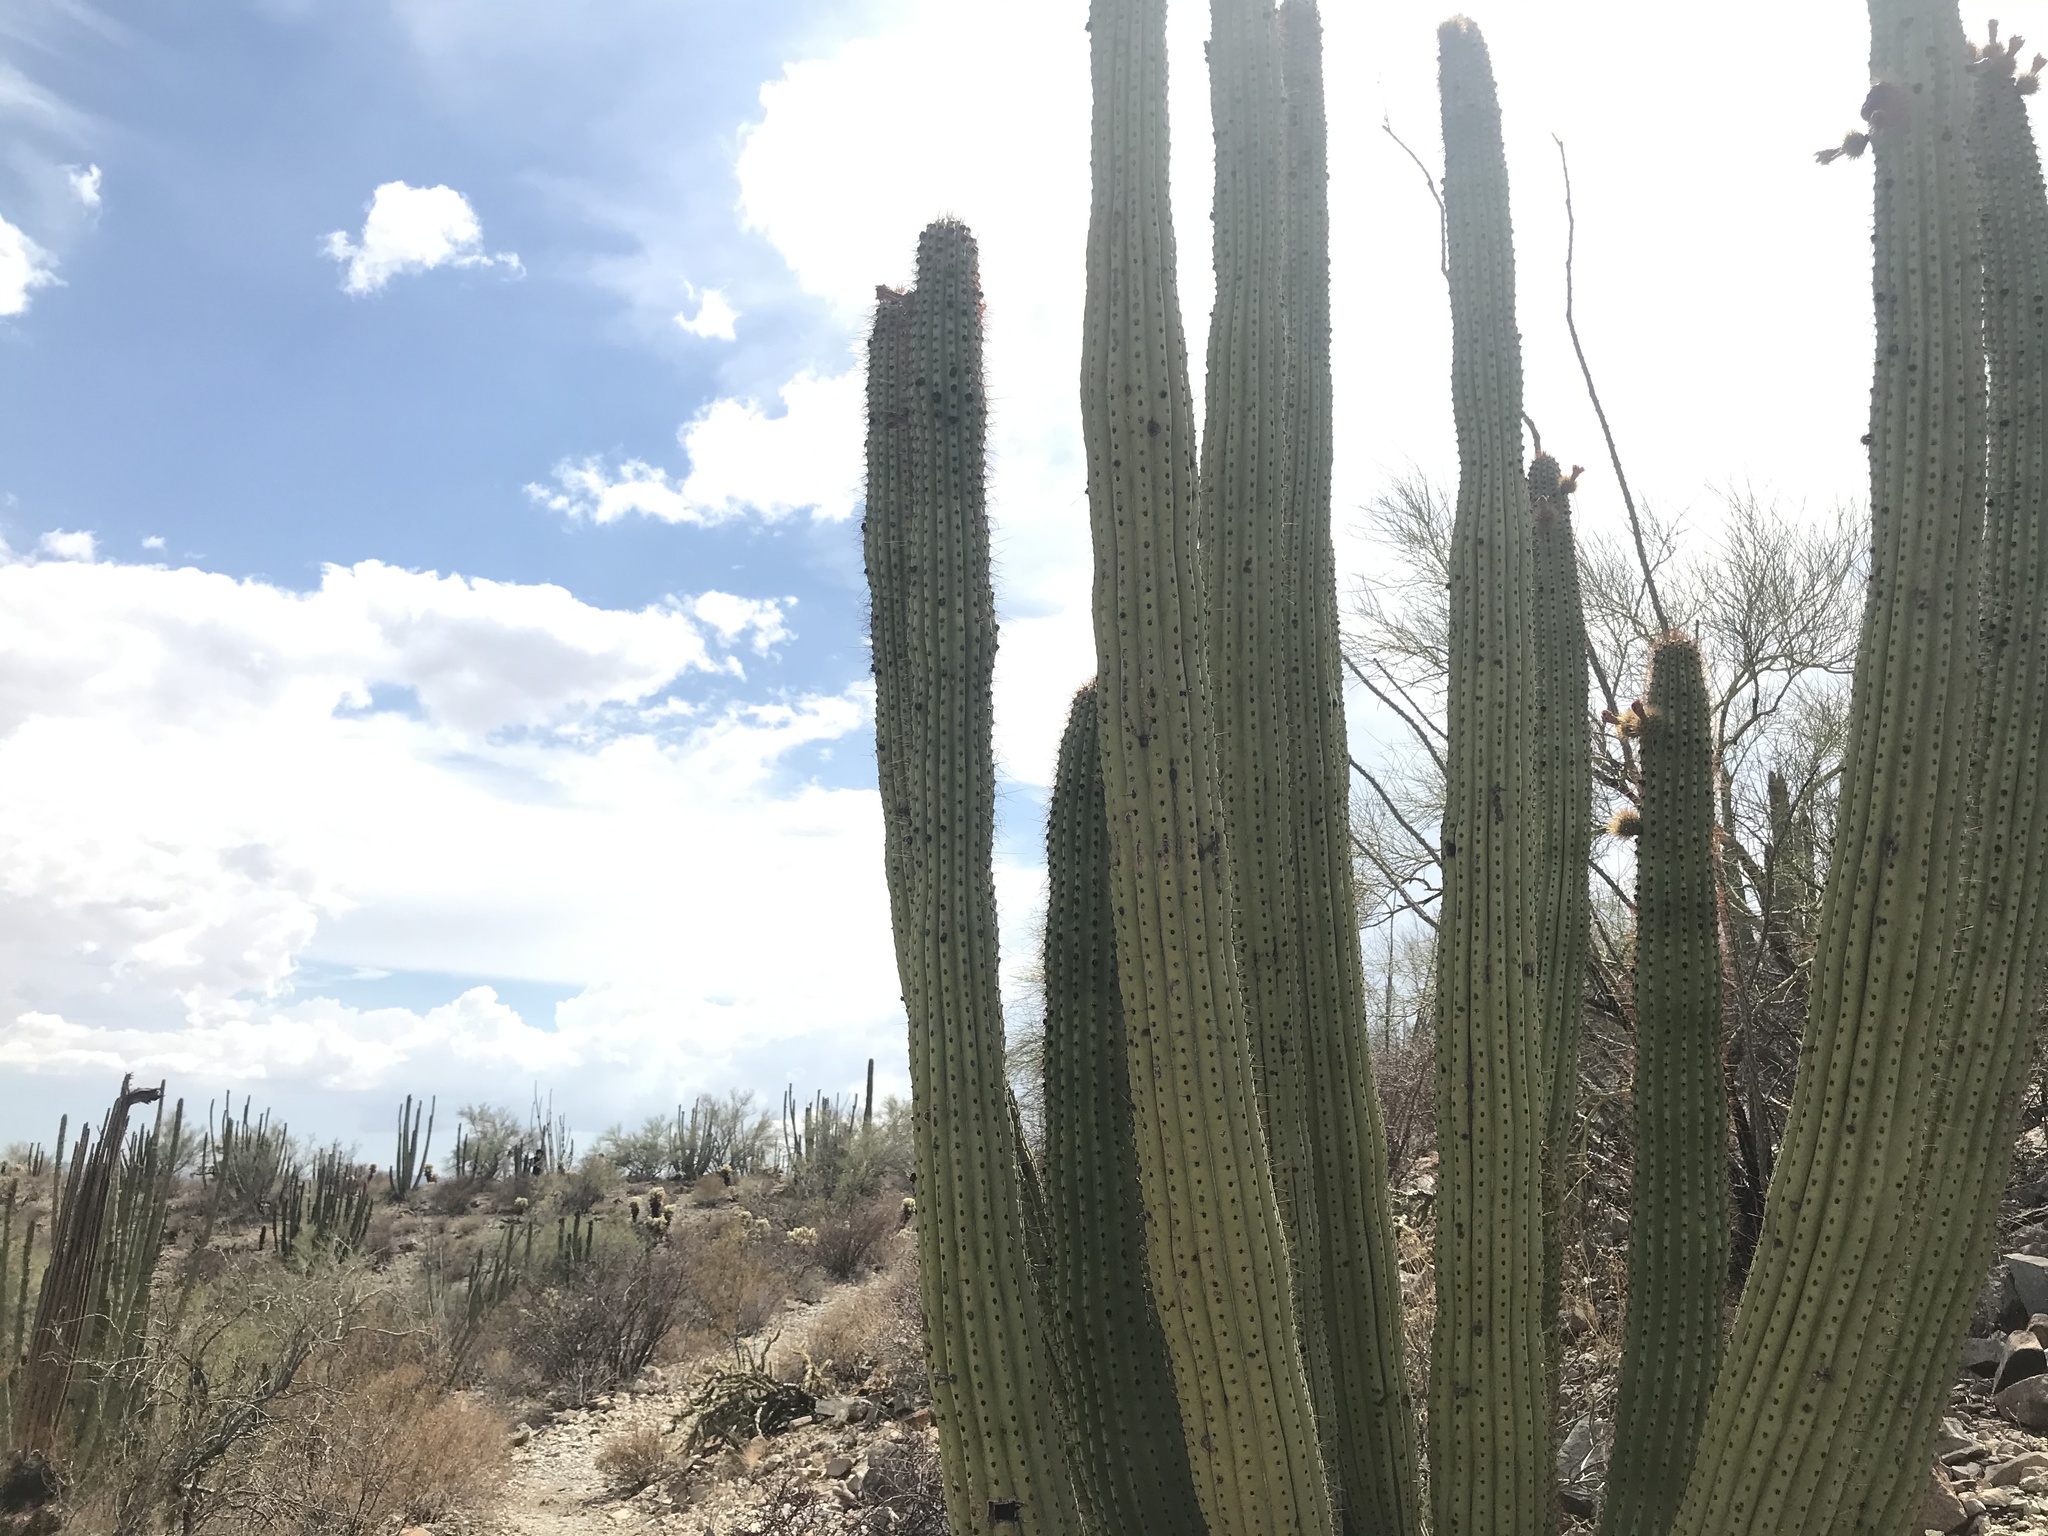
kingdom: Plantae
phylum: Tracheophyta
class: Magnoliopsida
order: Caryophyllales
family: Cactaceae
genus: Stenocereus
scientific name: Stenocereus thurberi
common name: Organ pipe cactus
